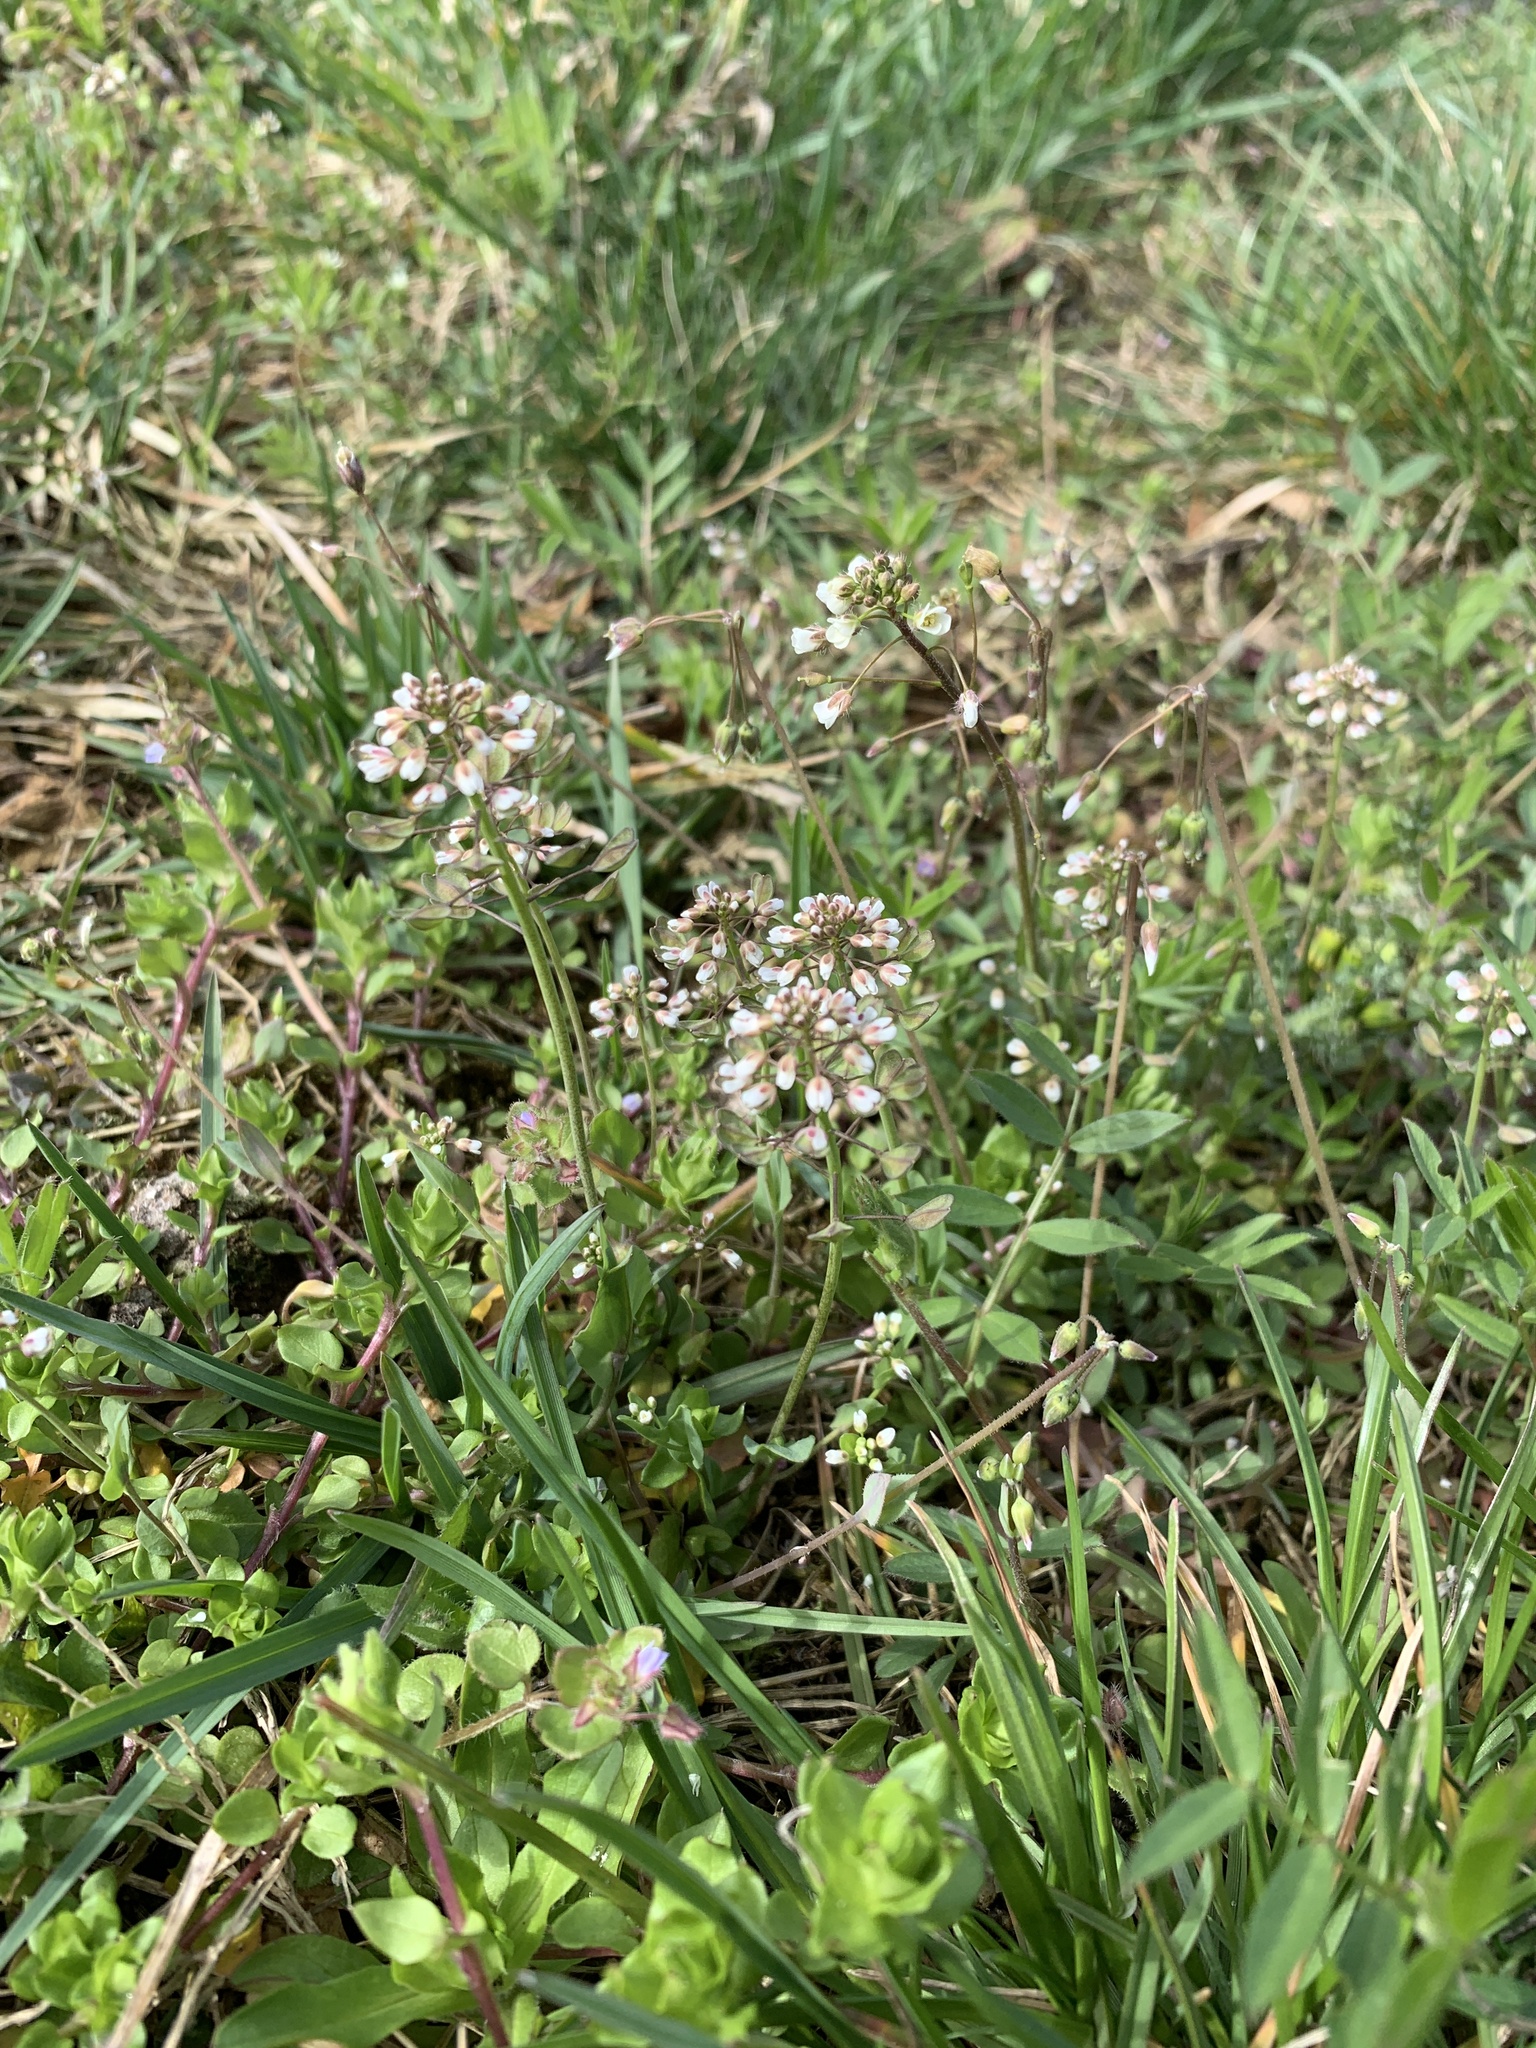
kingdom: Plantae
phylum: Tracheophyta
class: Magnoliopsida
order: Brassicales
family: Brassicaceae
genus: Noccaea
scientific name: Noccaea perfoliata
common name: Perfoliate pennycress
